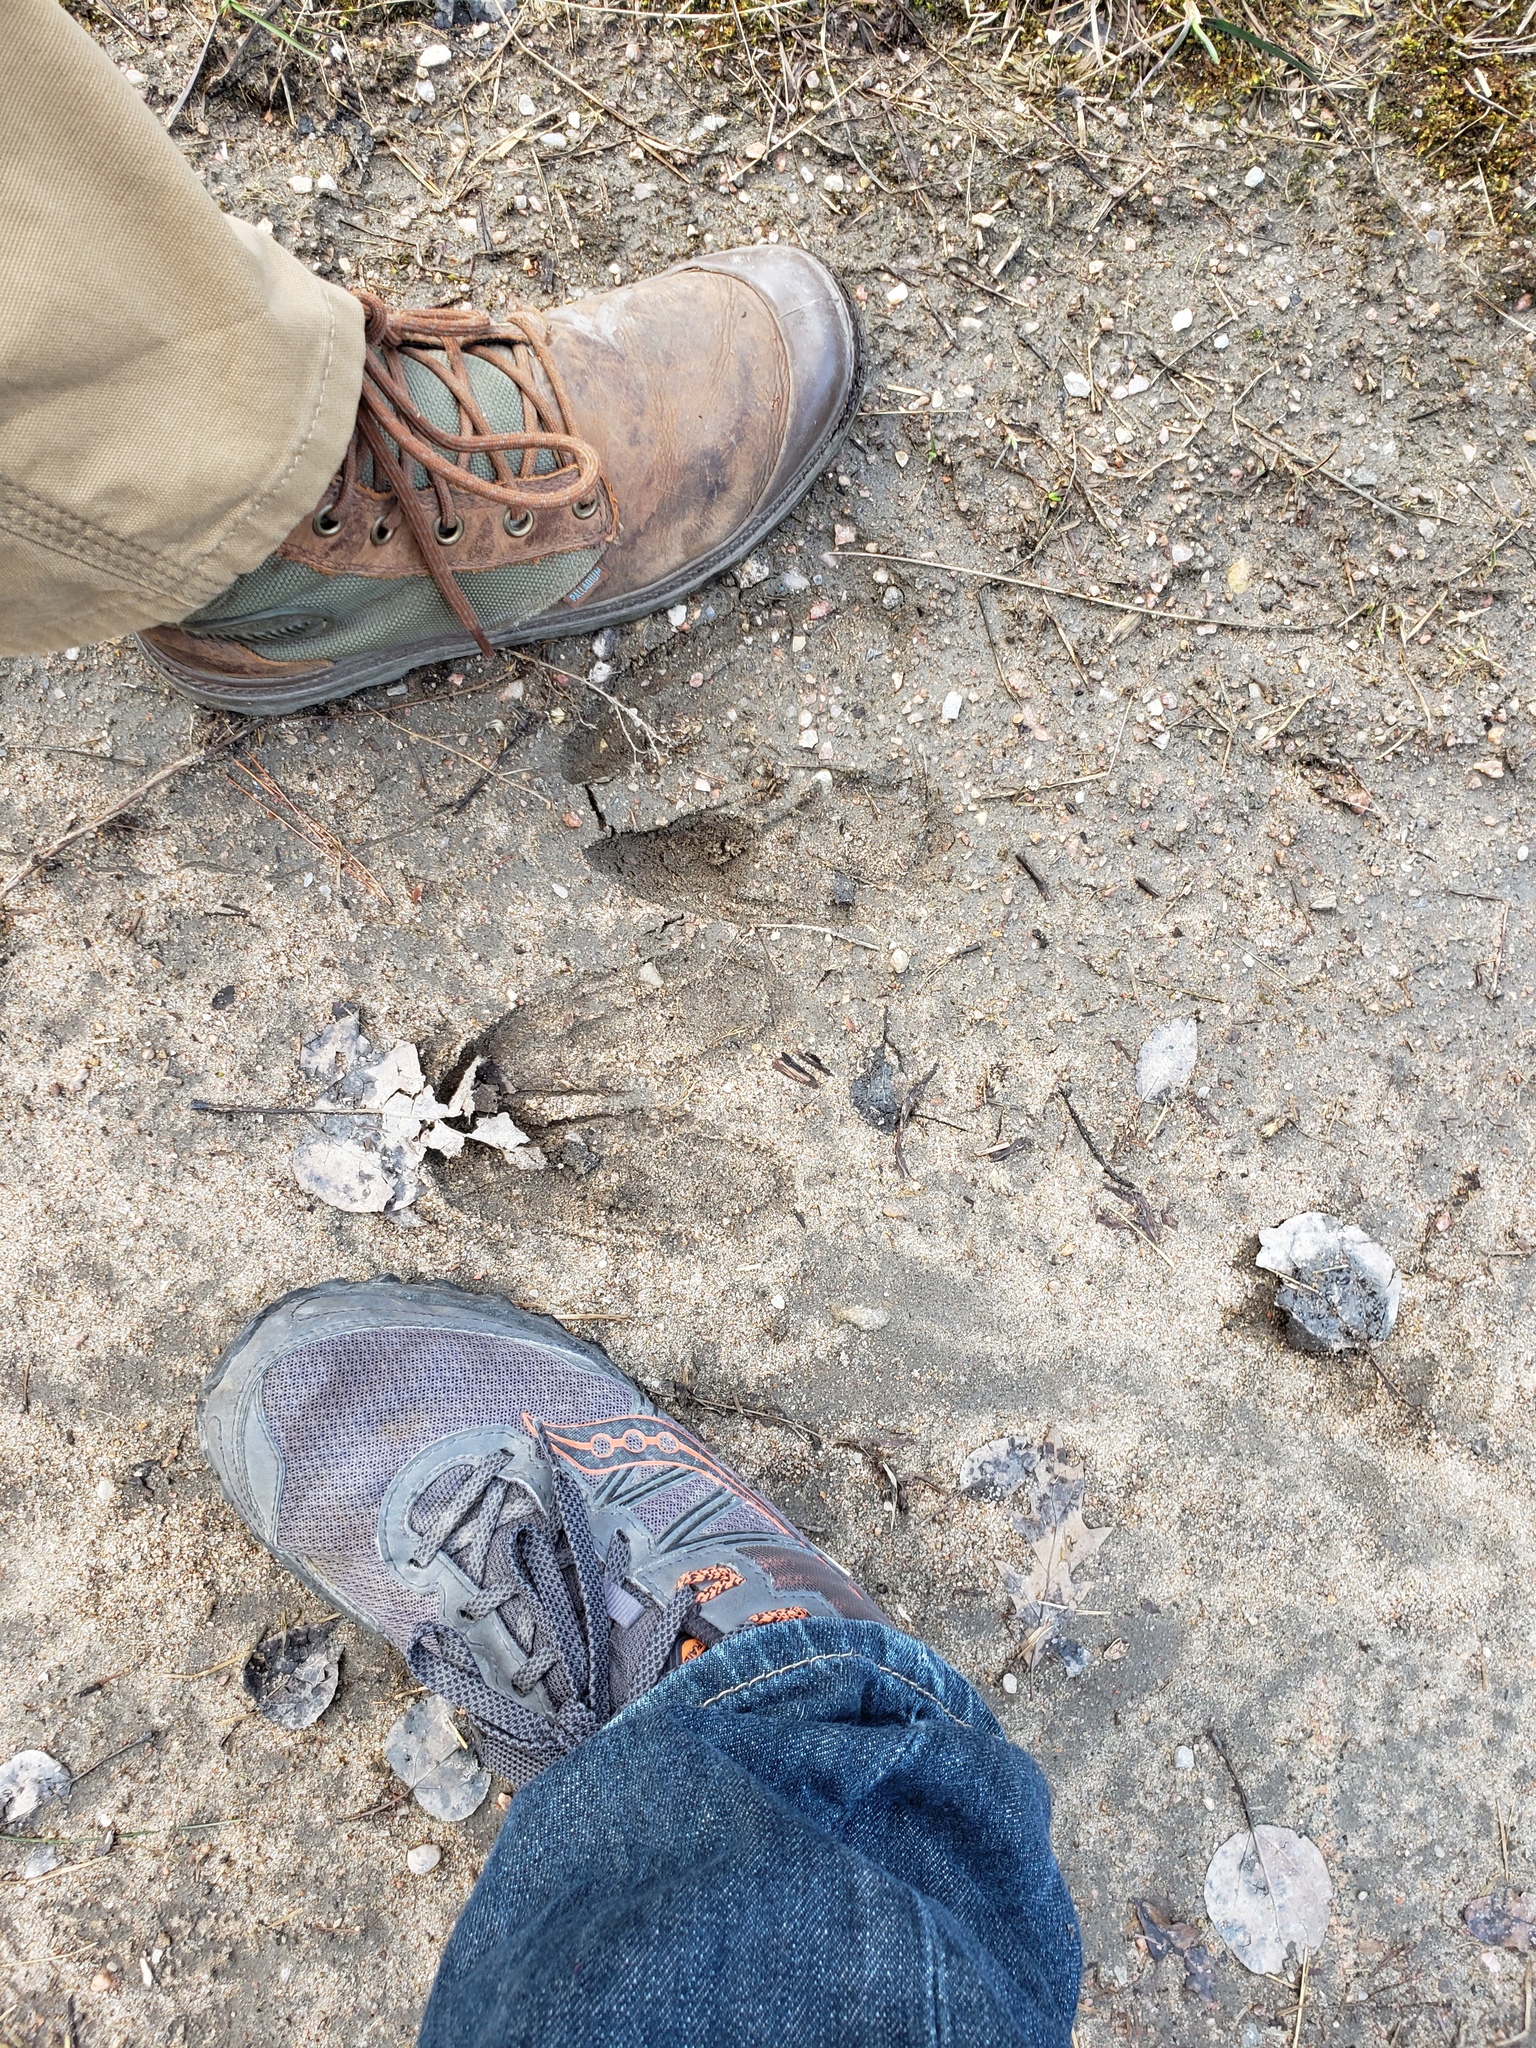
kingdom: Animalia
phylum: Chordata
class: Mammalia
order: Artiodactyla
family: Cervidae
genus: Alces
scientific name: Alces alces
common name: Moose
